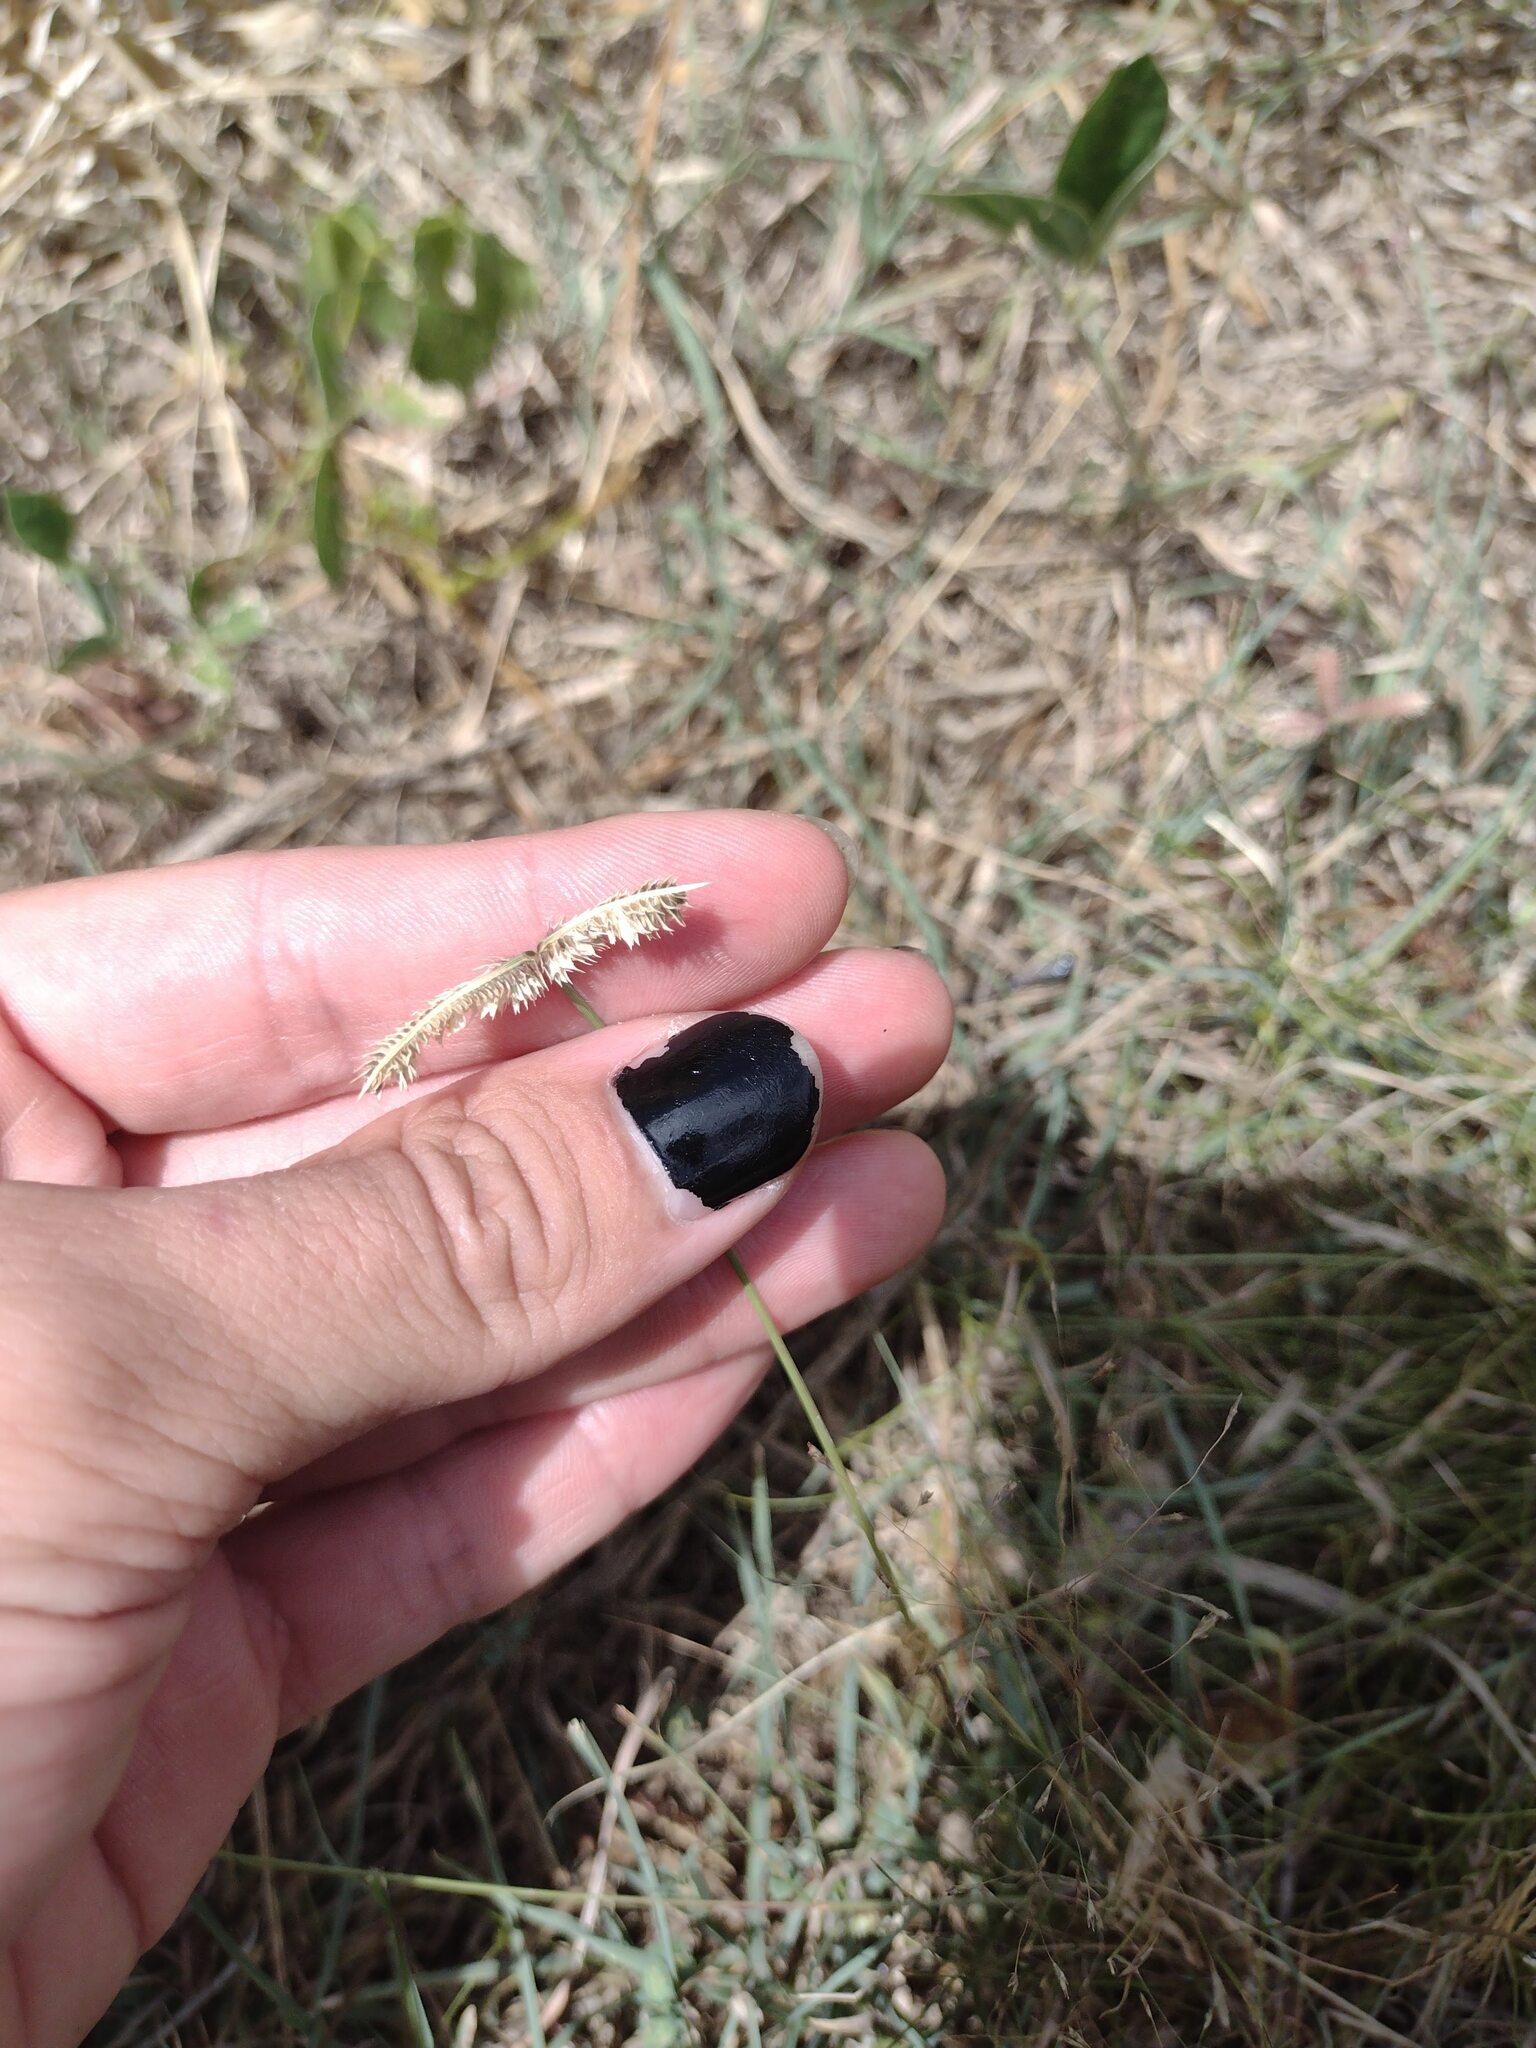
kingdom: Plantae
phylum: Tracheophyta
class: Liliopsida
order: Poales
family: Poaceae
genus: Dactyloctenium
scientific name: Dactyloctenium aegyptium
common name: Egyptian grass
